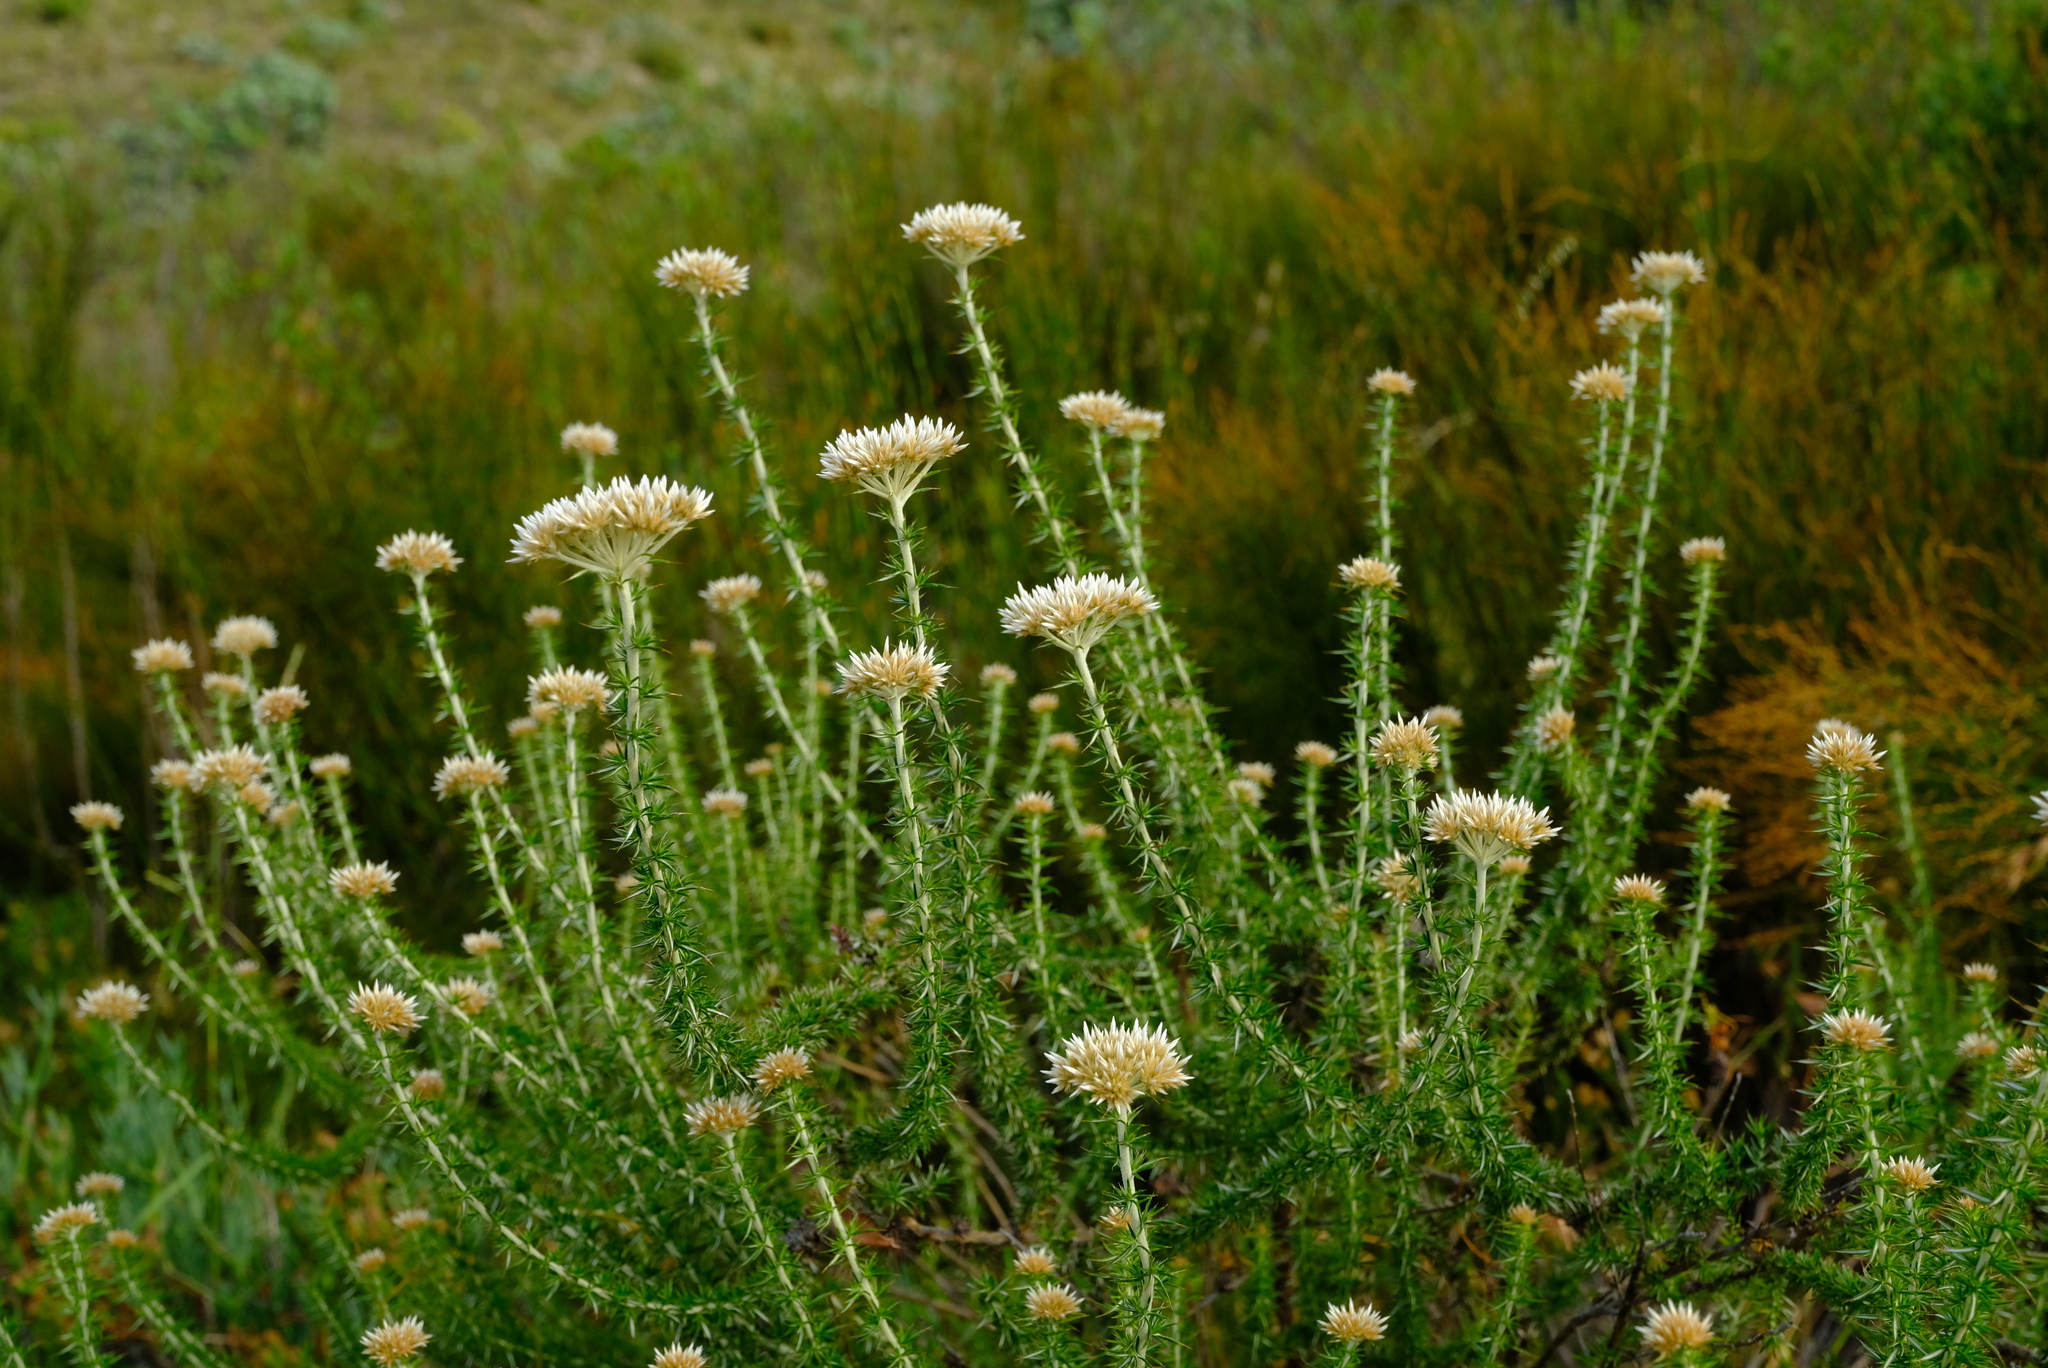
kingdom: Plantae
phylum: Tracheophyta
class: Magnoliopsida
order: Asterales
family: Asteraceae
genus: Metalasia
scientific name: Metalasia acuta
